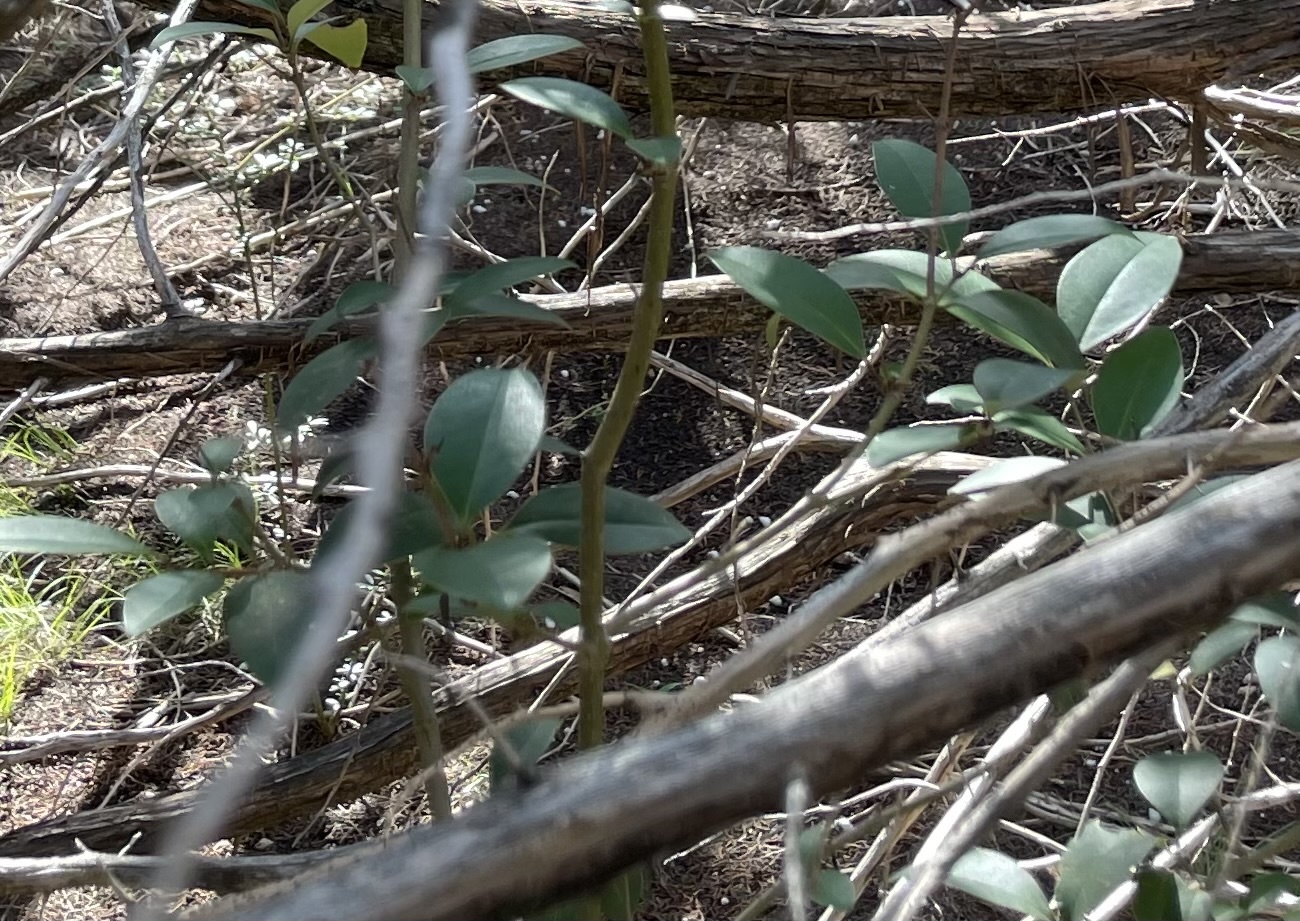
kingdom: Plantae
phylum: Tracheophyta
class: Magnoliopsida
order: Lamiales
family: Oleaceae
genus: Ligustrum
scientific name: Ligustrum lucidum
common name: Glossy privet
